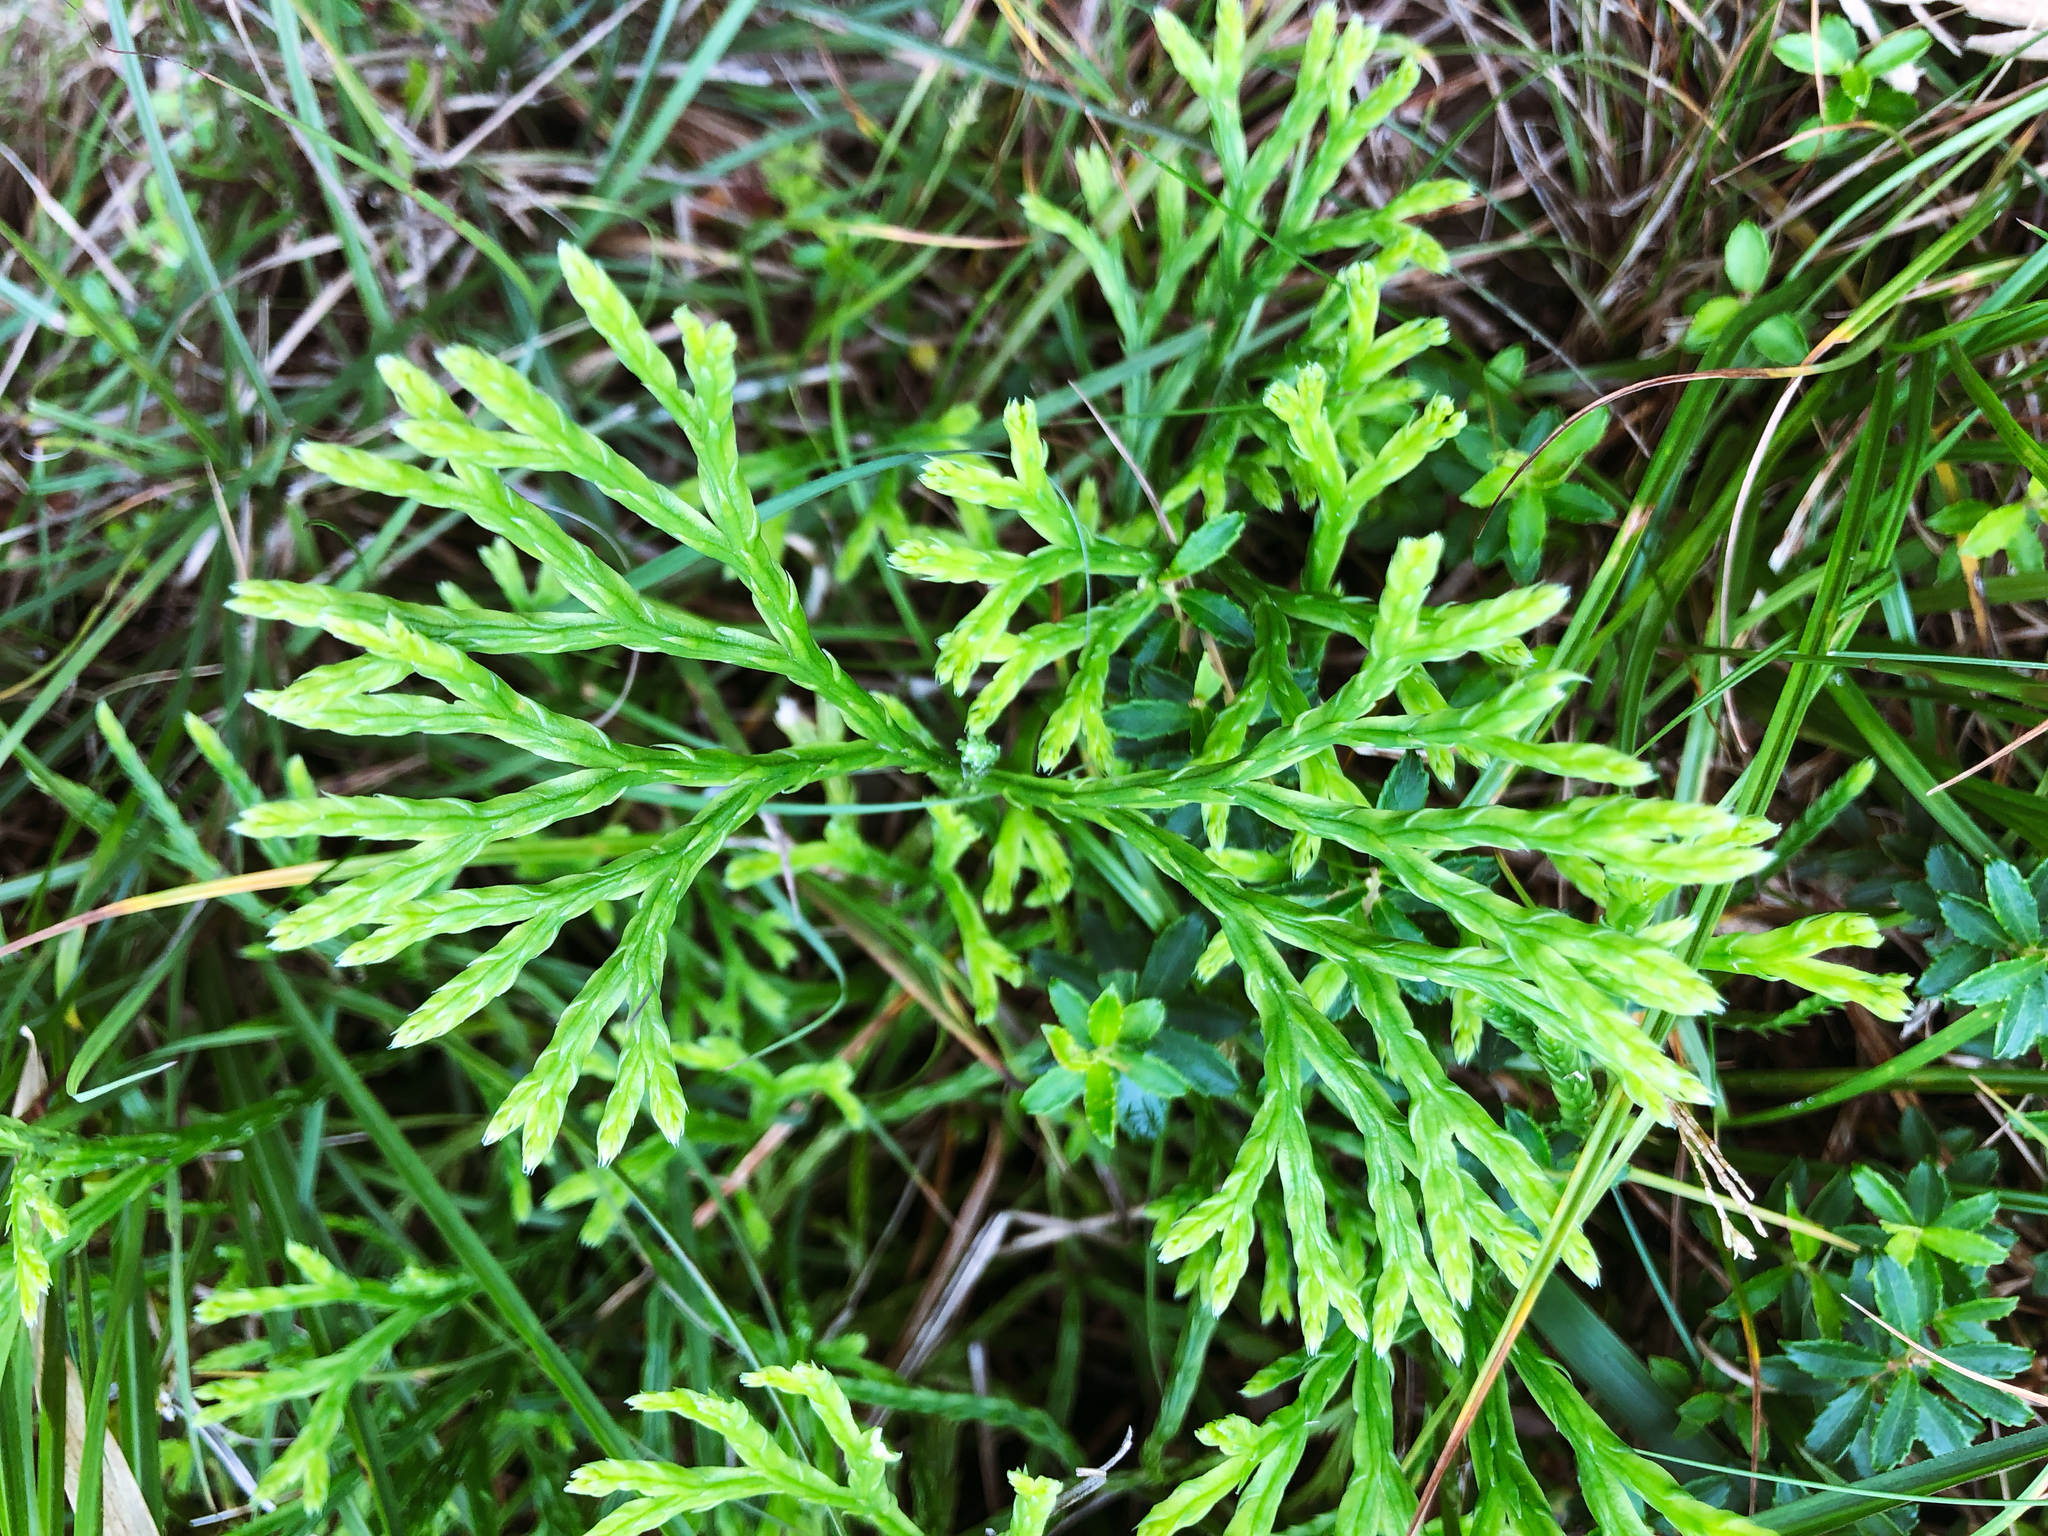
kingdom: Plantae
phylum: Tracheophyta
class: Lycopodiopsida
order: Lycopodiales
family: Lycopodiaceae
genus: Diphasiastrum
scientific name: Diphasiastrum complanatum
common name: Northern running-pine
